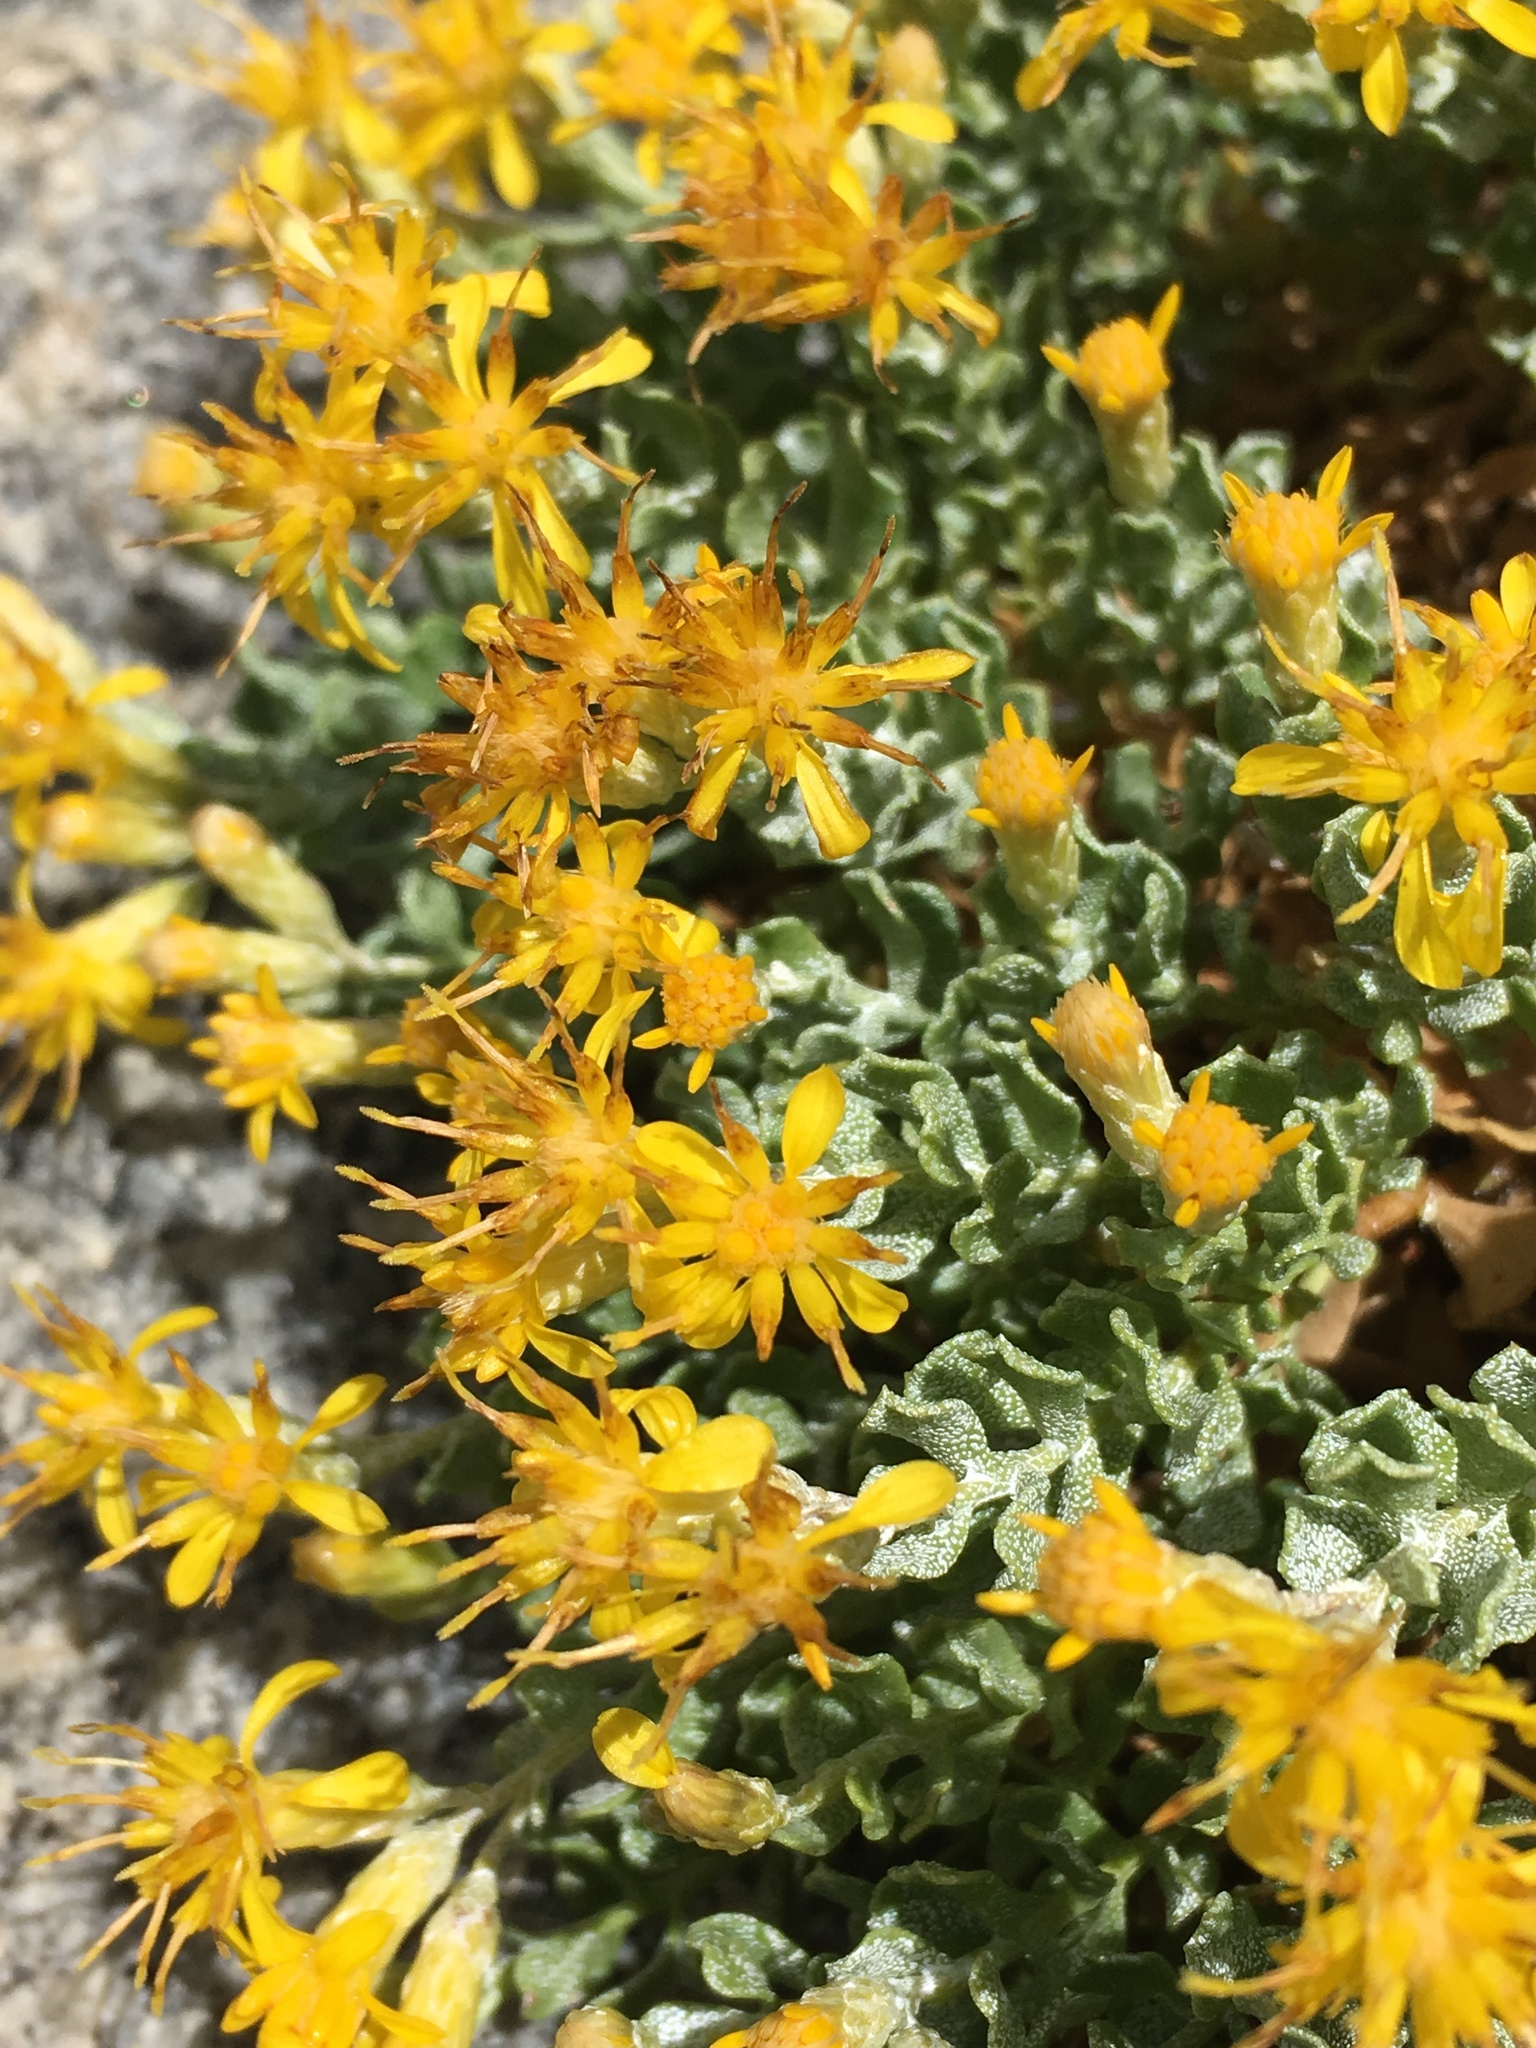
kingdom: Plantae
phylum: Tracheophyta
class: Magnoliopsida
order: Asterales
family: Asteraceae
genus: Ericameria
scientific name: Ericameria cuneata
